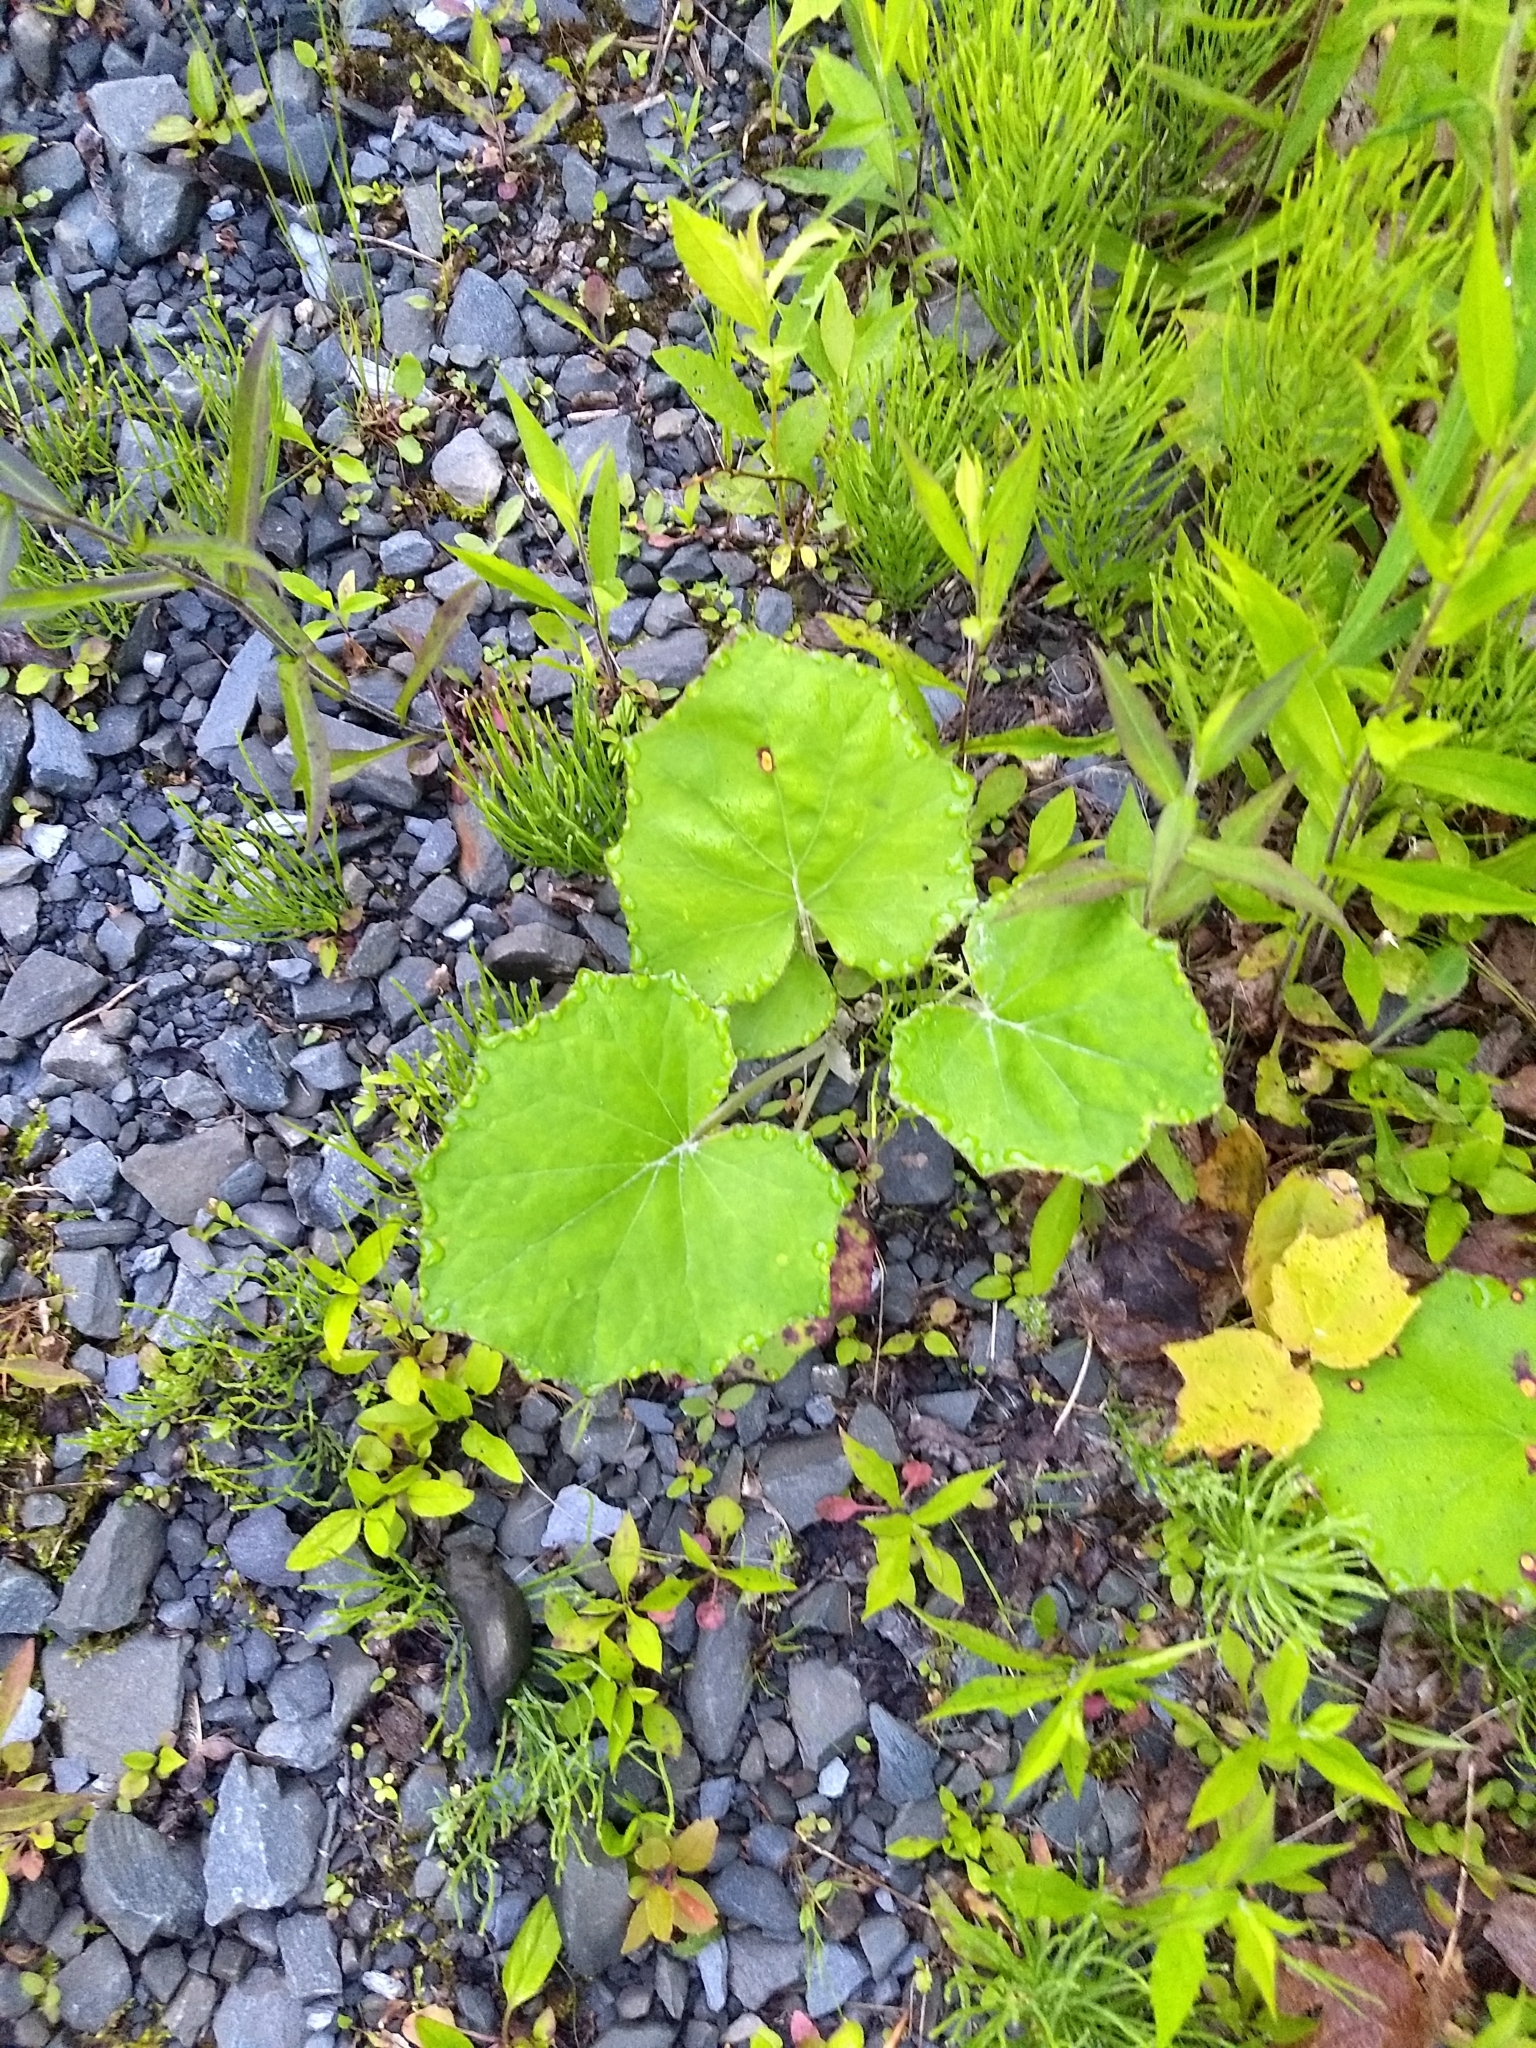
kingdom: Plantae
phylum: Tracheophyta
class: Magnoliopsida
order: Asterales
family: Asteraceae
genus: Tussilago
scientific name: Tussilago farfara
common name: Coltsfoot
